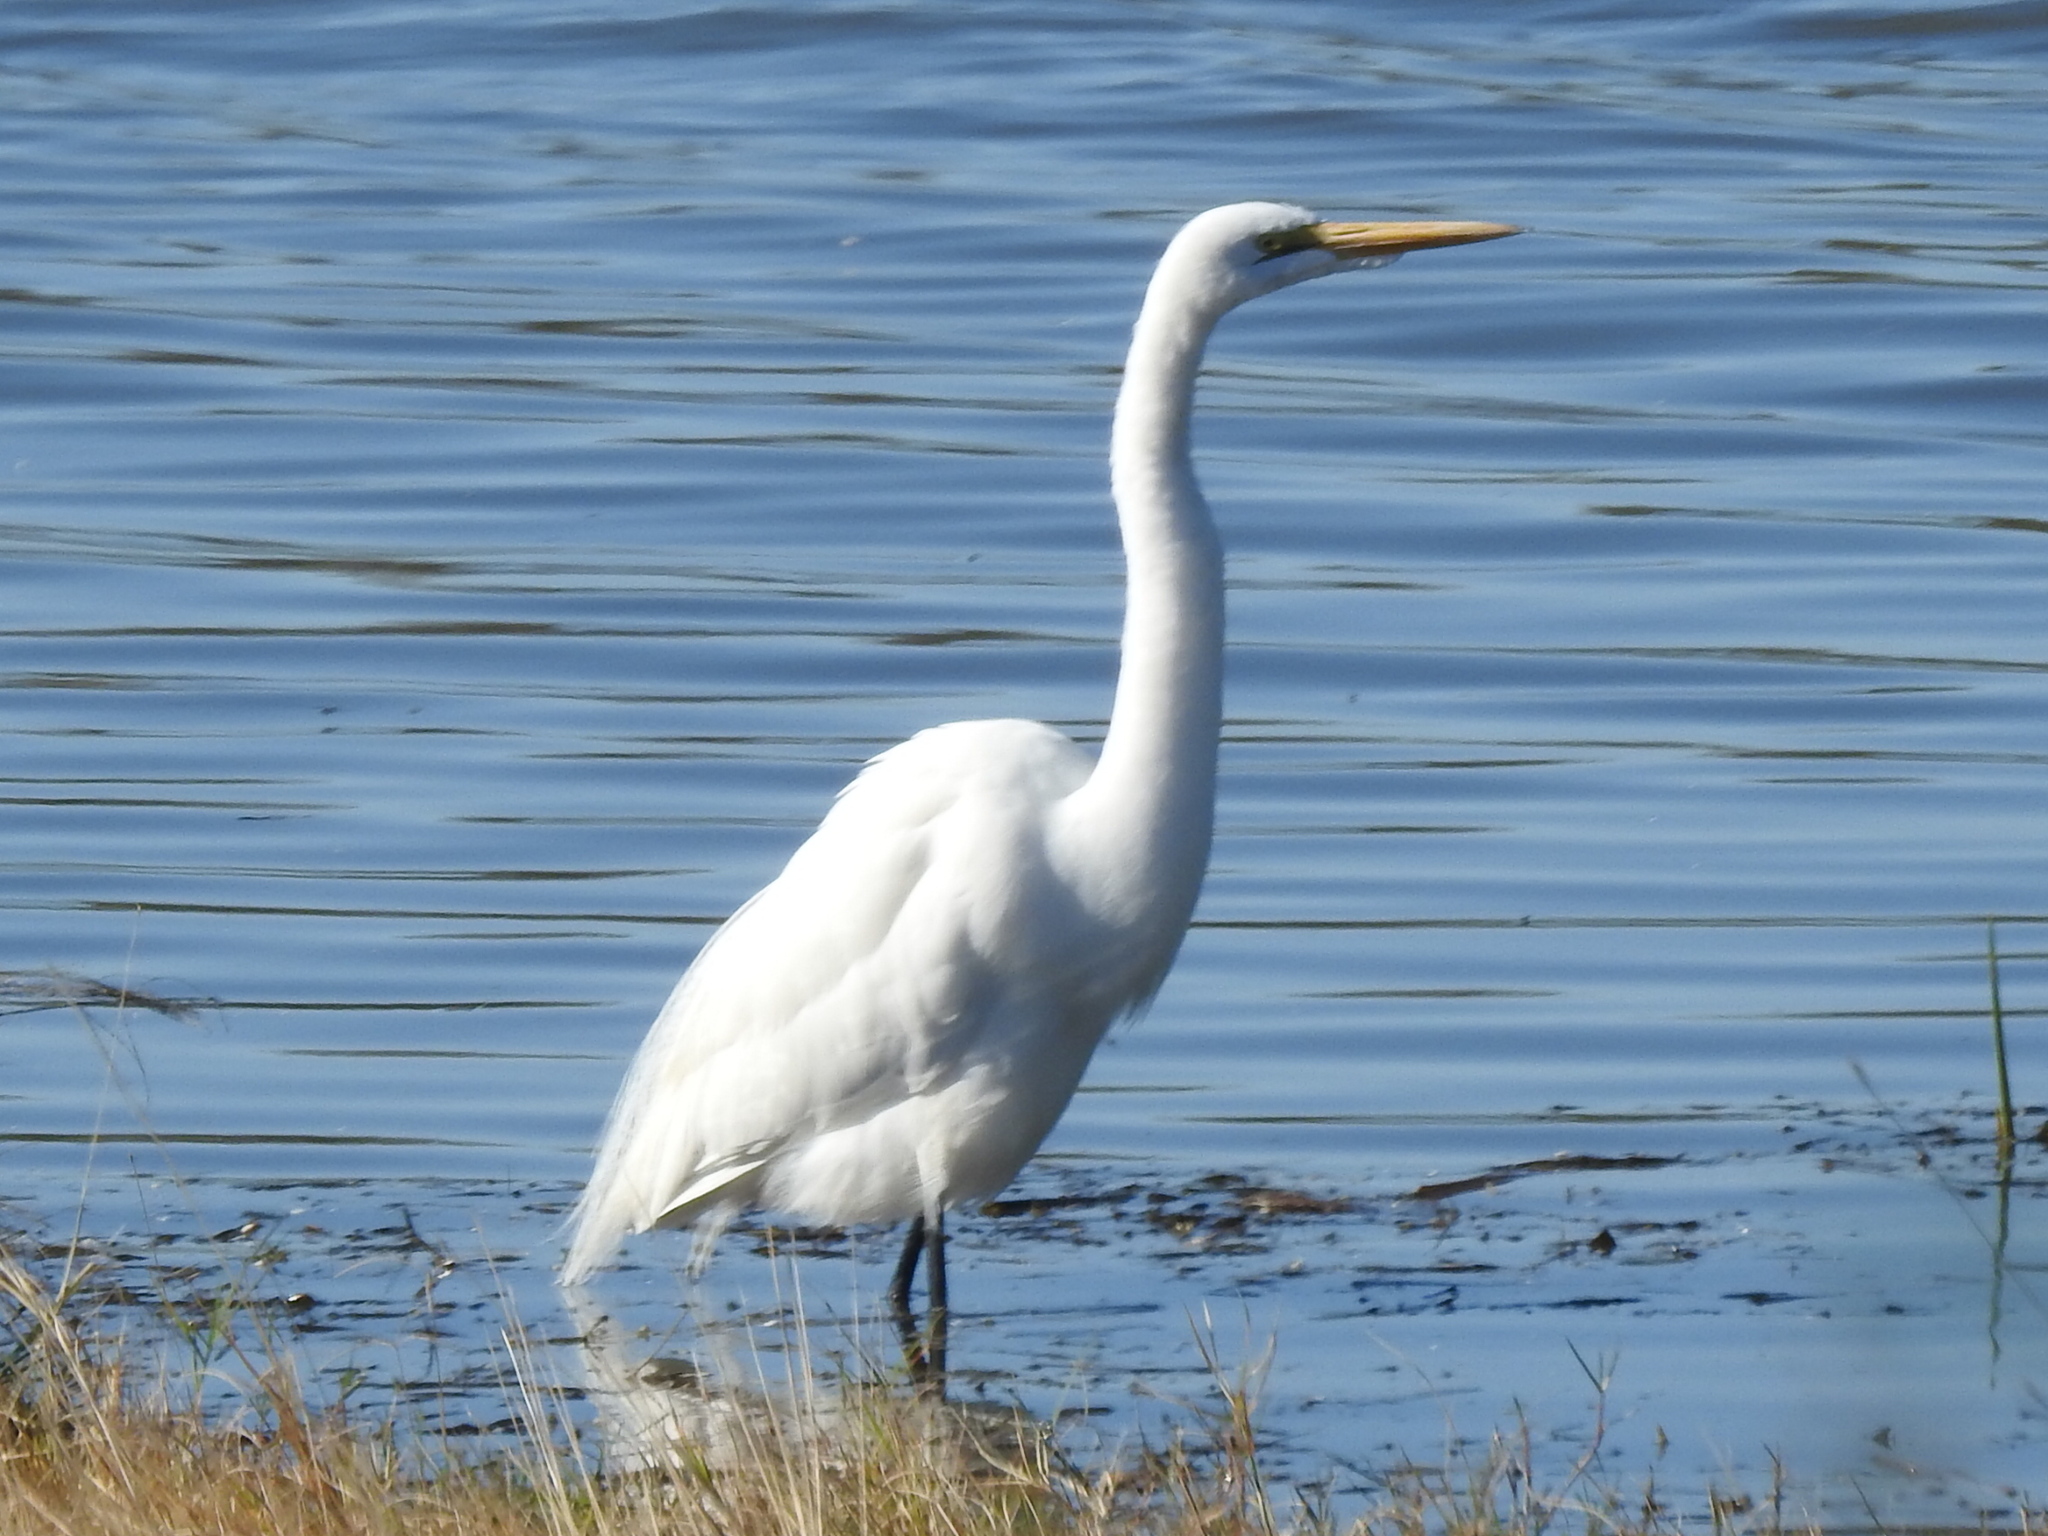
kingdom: Animalia
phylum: Chordata
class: Aves
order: Pelecaniformes
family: Ardeidae
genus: Ardea
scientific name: Ardea alba
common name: Great egret
